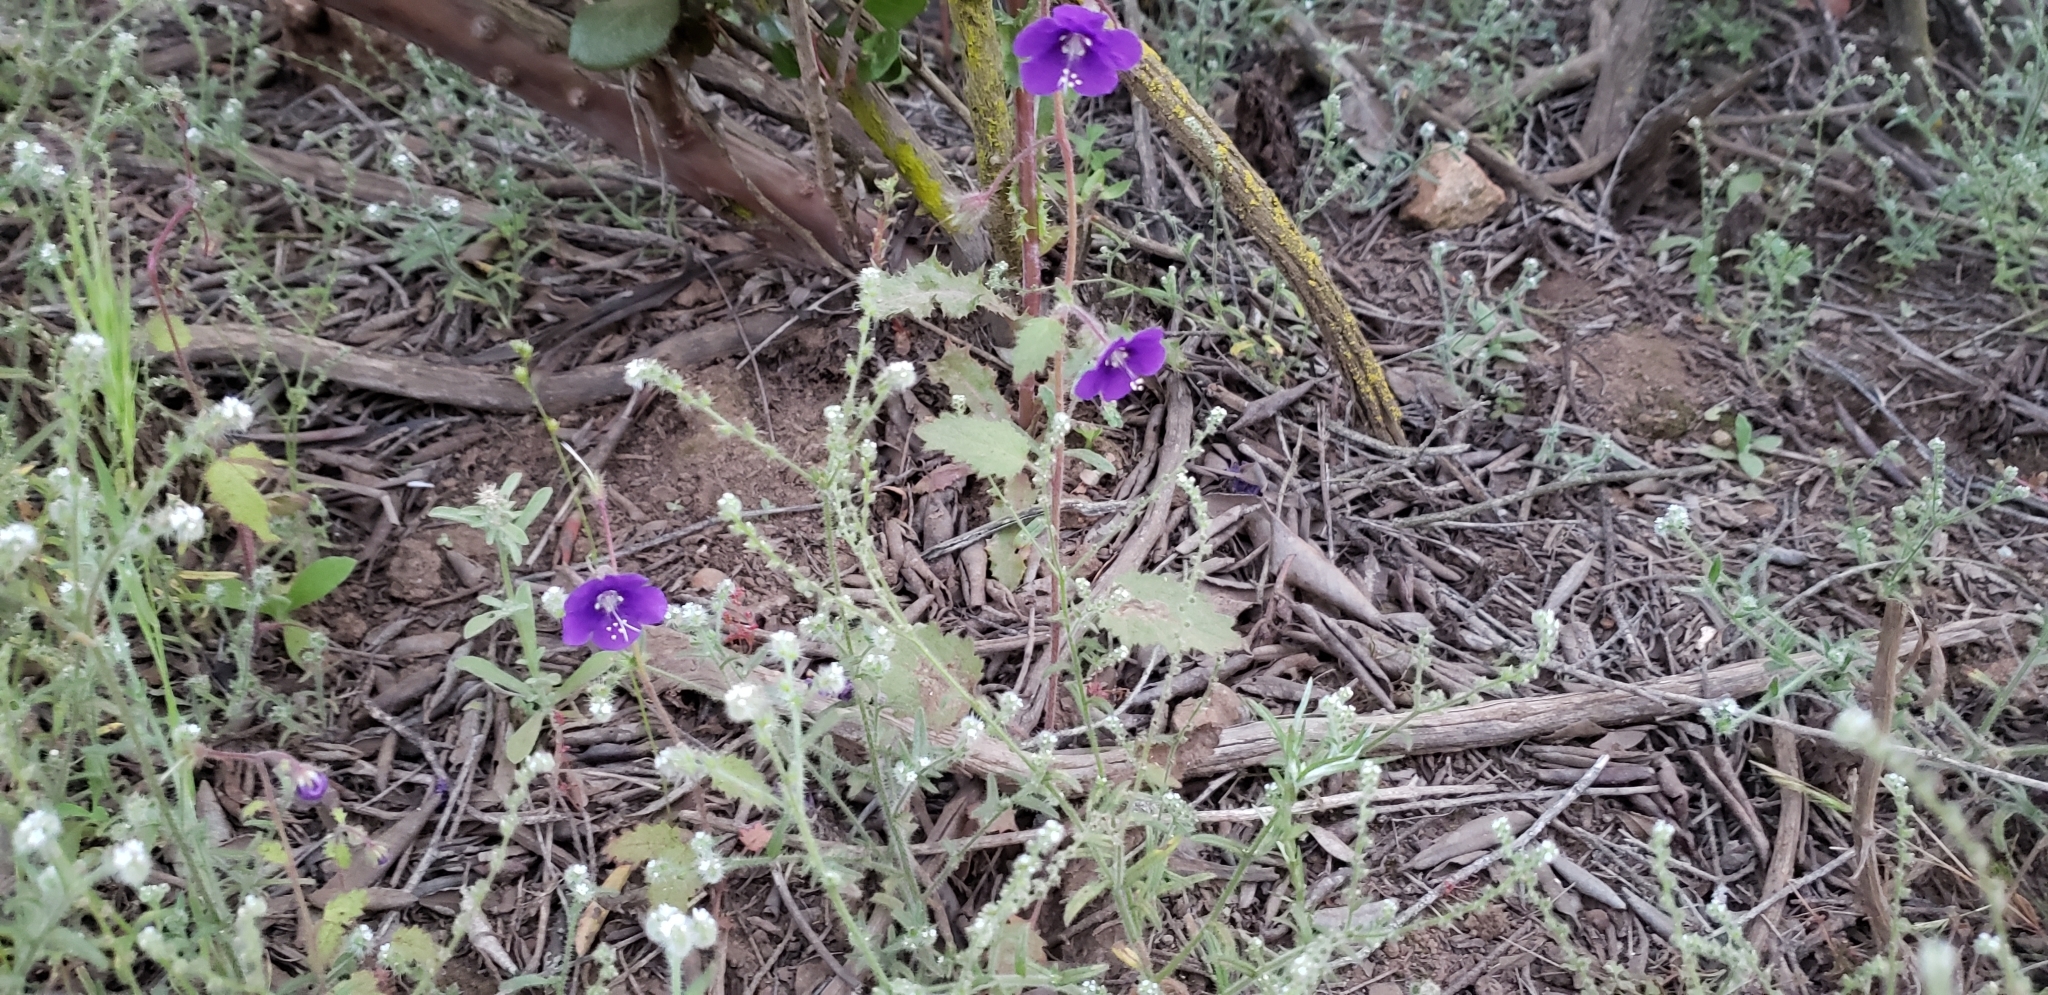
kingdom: Plantae
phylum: Tracheophyta
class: Magnoliopsida
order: Boraginales
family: Hydrophyllaceae
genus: Phacelia
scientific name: Phacelia parryi
